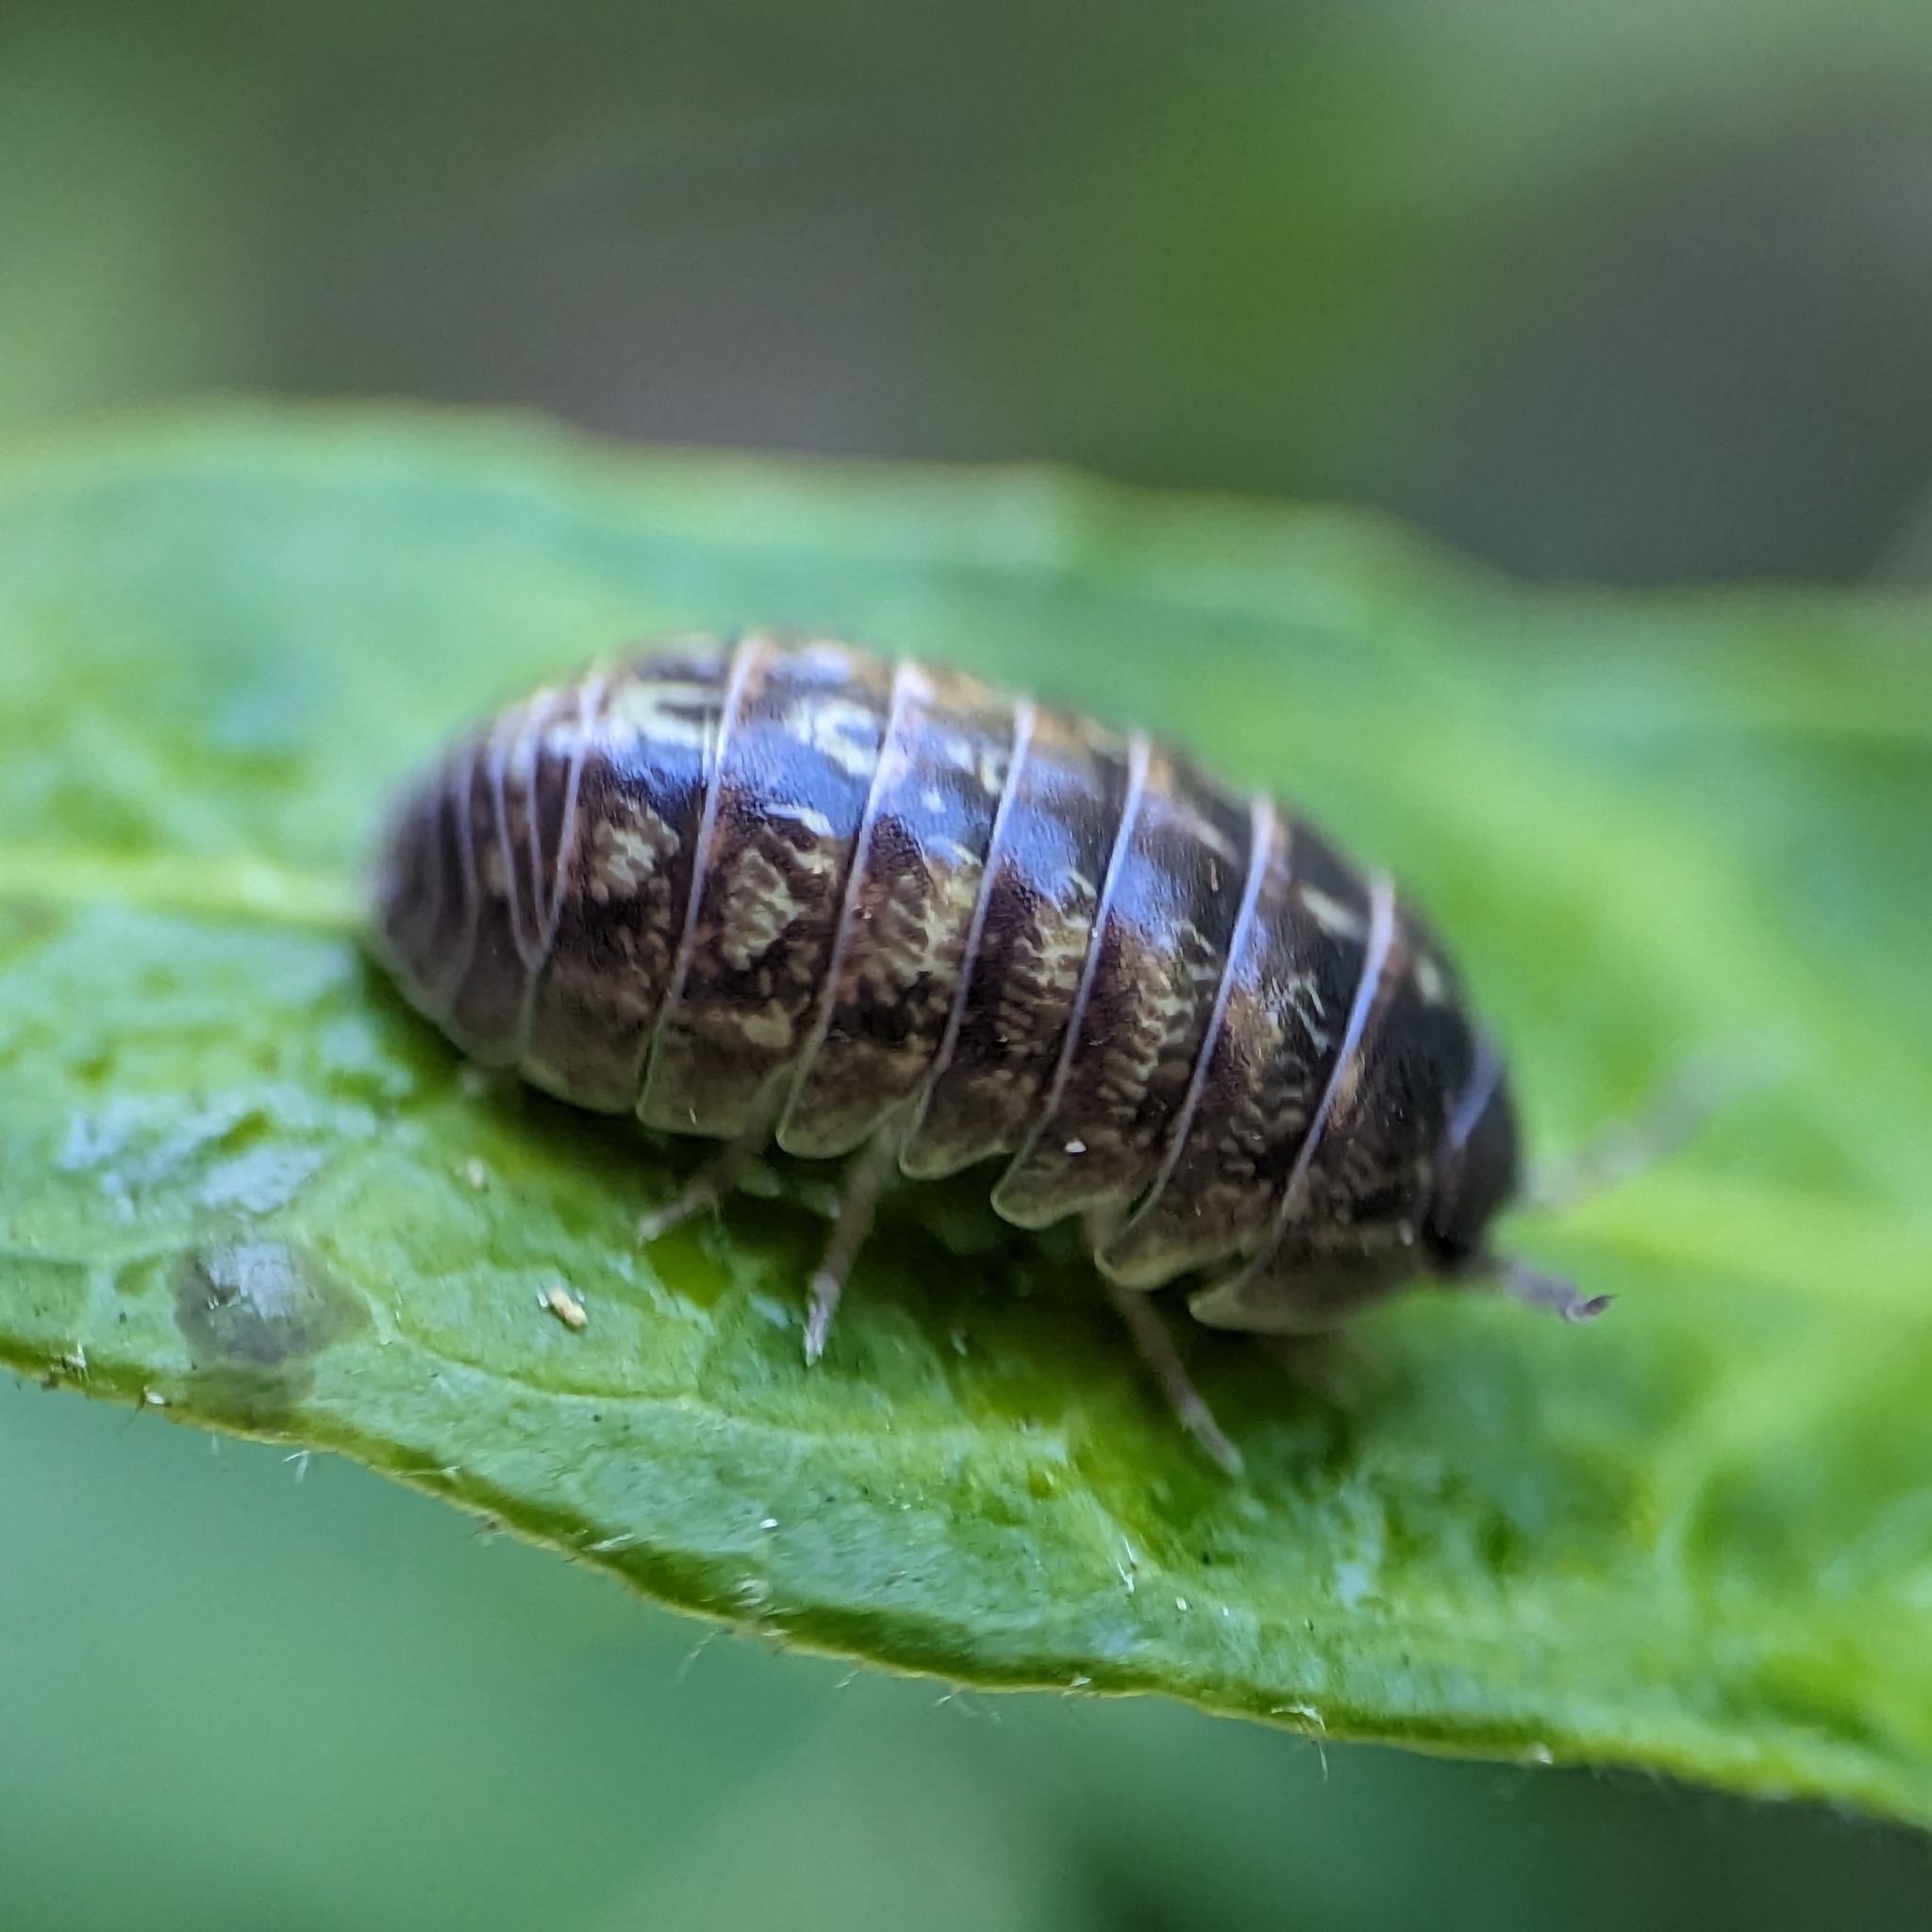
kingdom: Animalia
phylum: Arthropoda
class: Malacostraca
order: Isopoda
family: Armadillidiidae
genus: Armadillidium
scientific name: Armadillidium vulgare
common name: Common pill woodlouse
